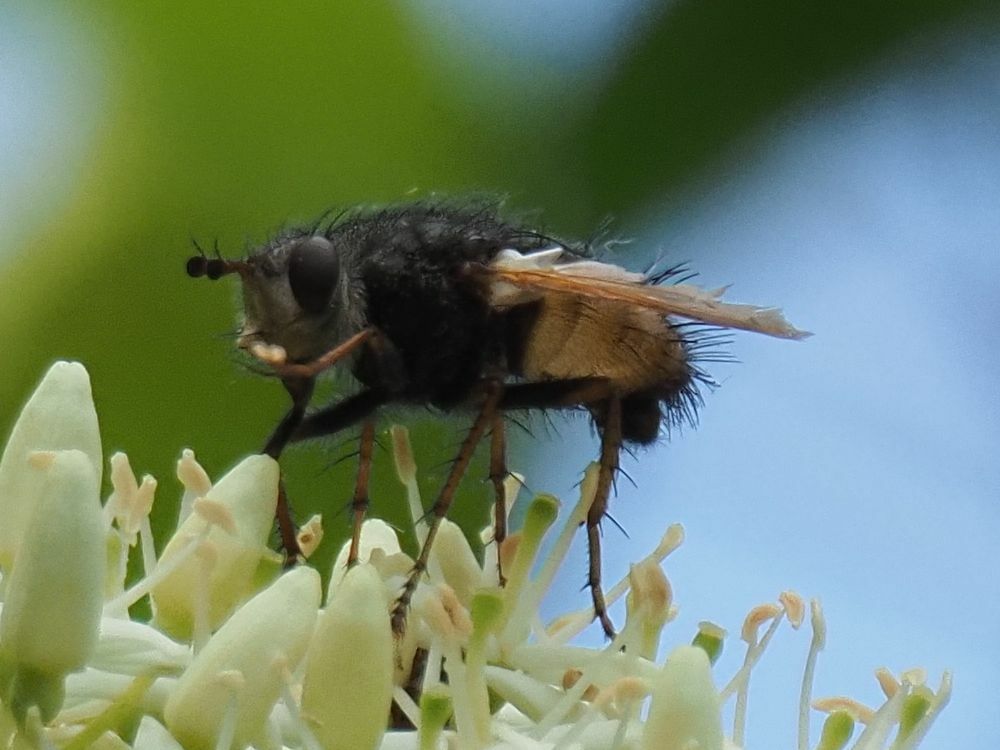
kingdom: Animalia
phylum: Arthropoda
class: Insecta
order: Diptera
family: Tachinidae
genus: Tachina
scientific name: Tachina fera
